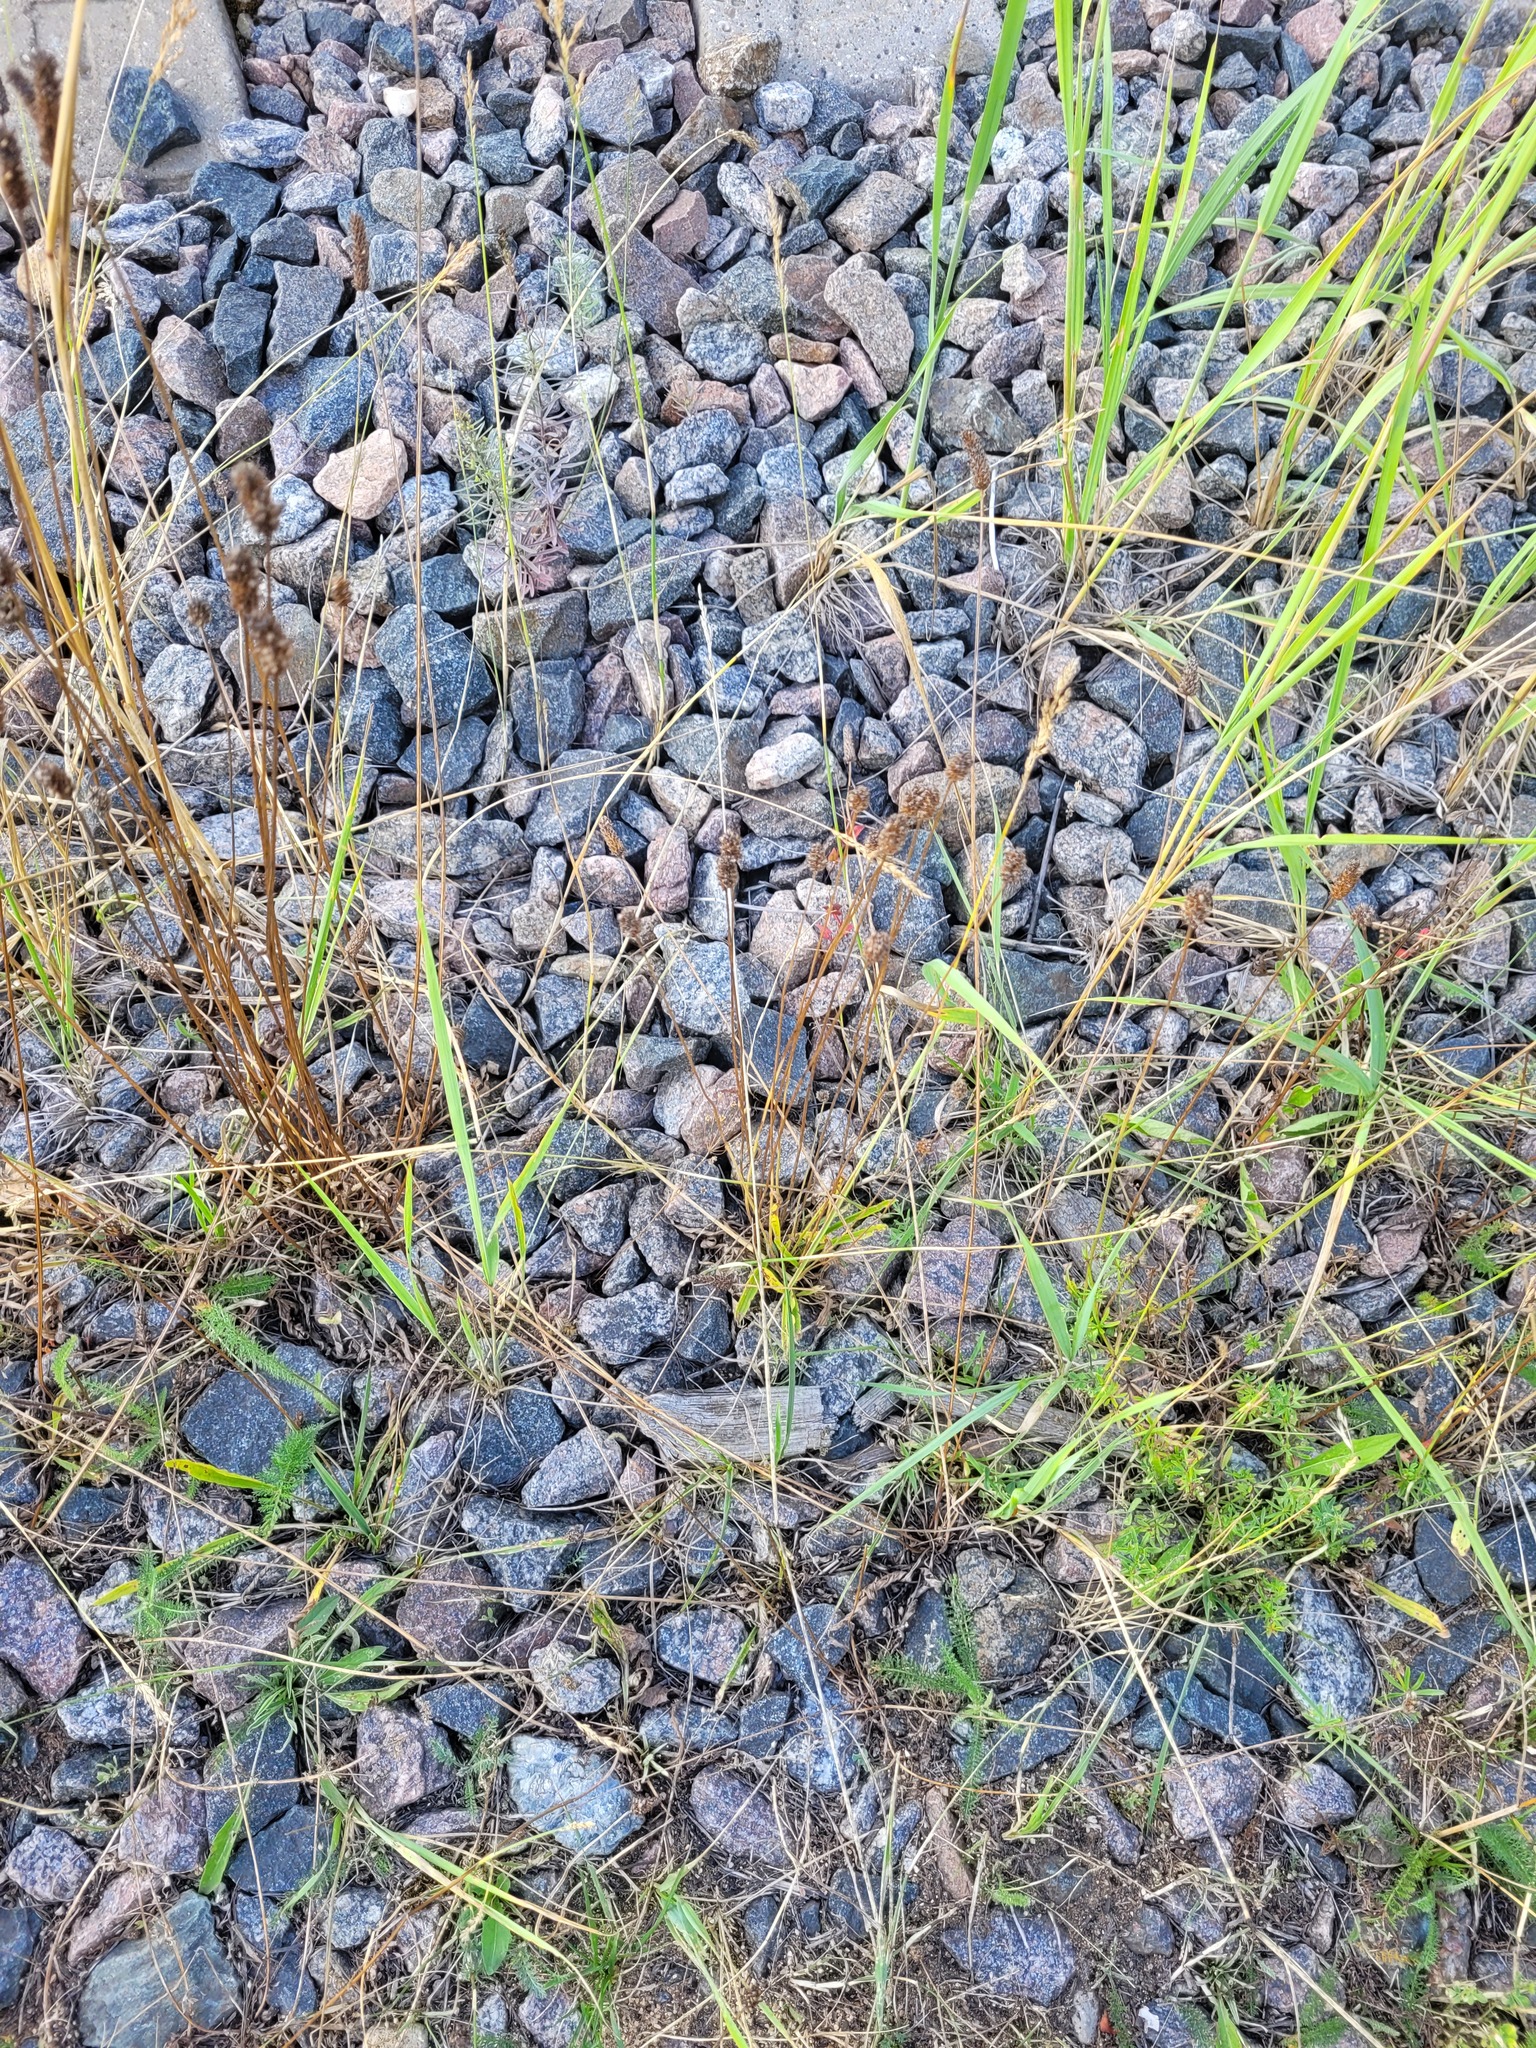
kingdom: Plantae
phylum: Tracheophyta
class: Magnoliopsida
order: Lamiales
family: Plantaginaceae
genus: Plantago
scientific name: Plantago lanceolata
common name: Ribwort plantain
